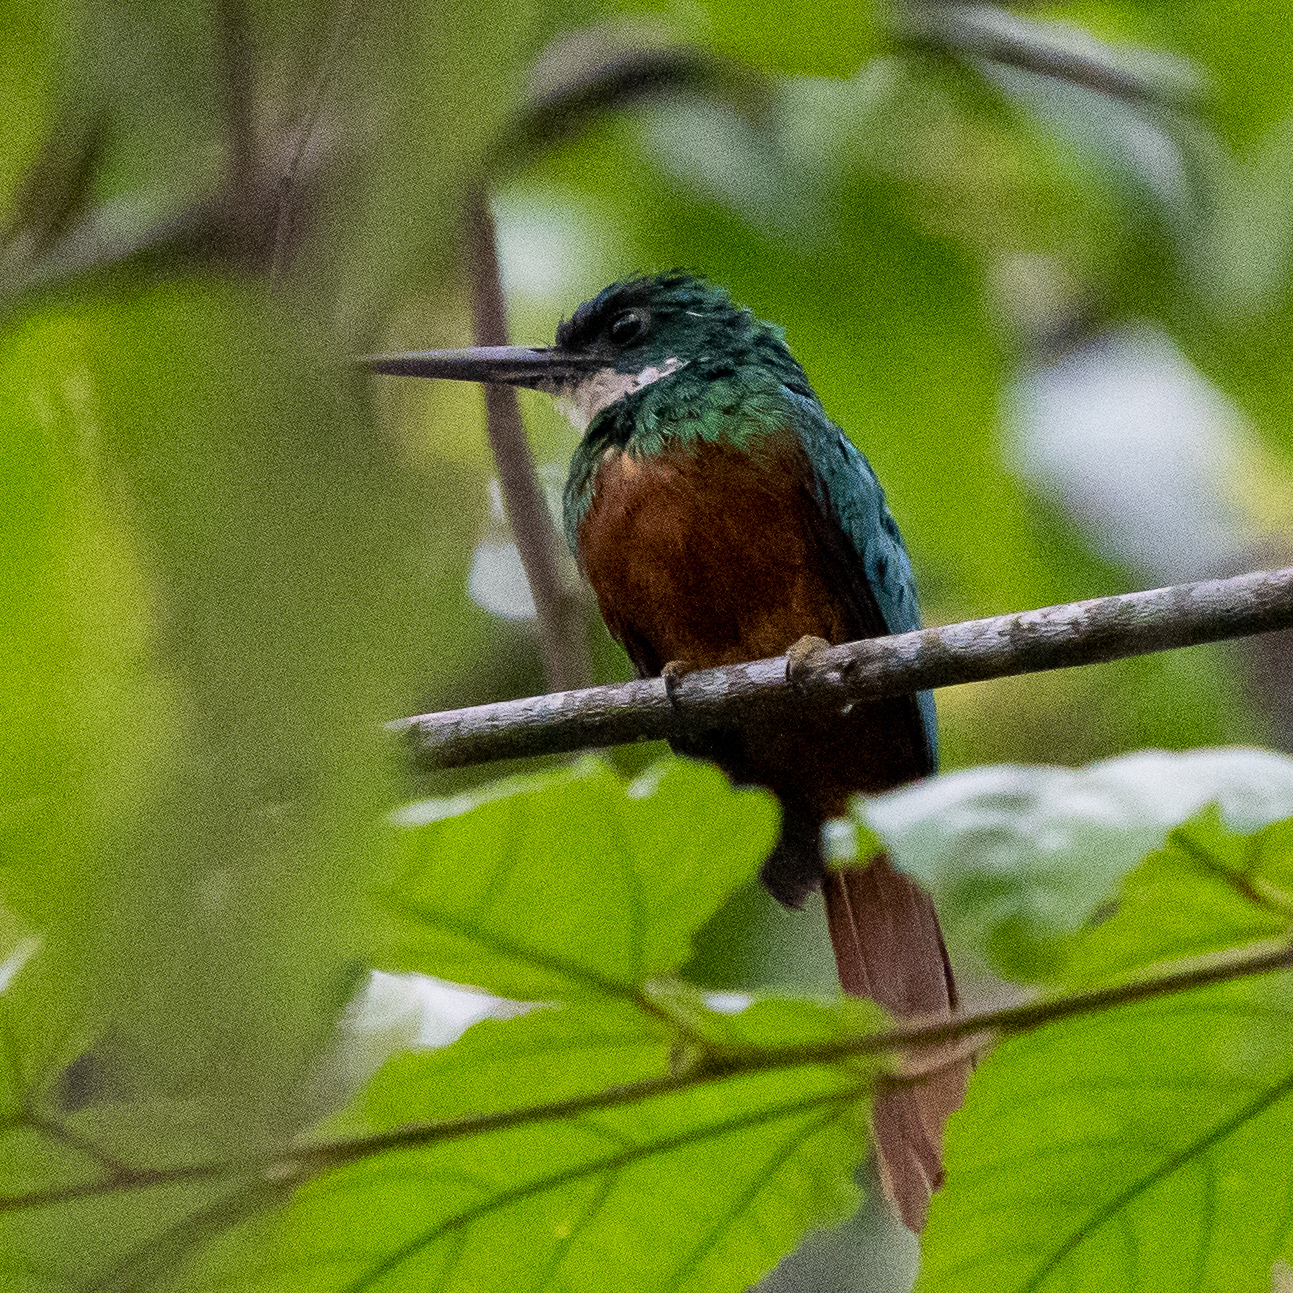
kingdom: Animalia
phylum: Chordata
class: Aves
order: Piciformes
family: Galbulidae
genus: Galbula
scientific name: Galbula ruficauda
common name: Rufous-tailed jacamar
